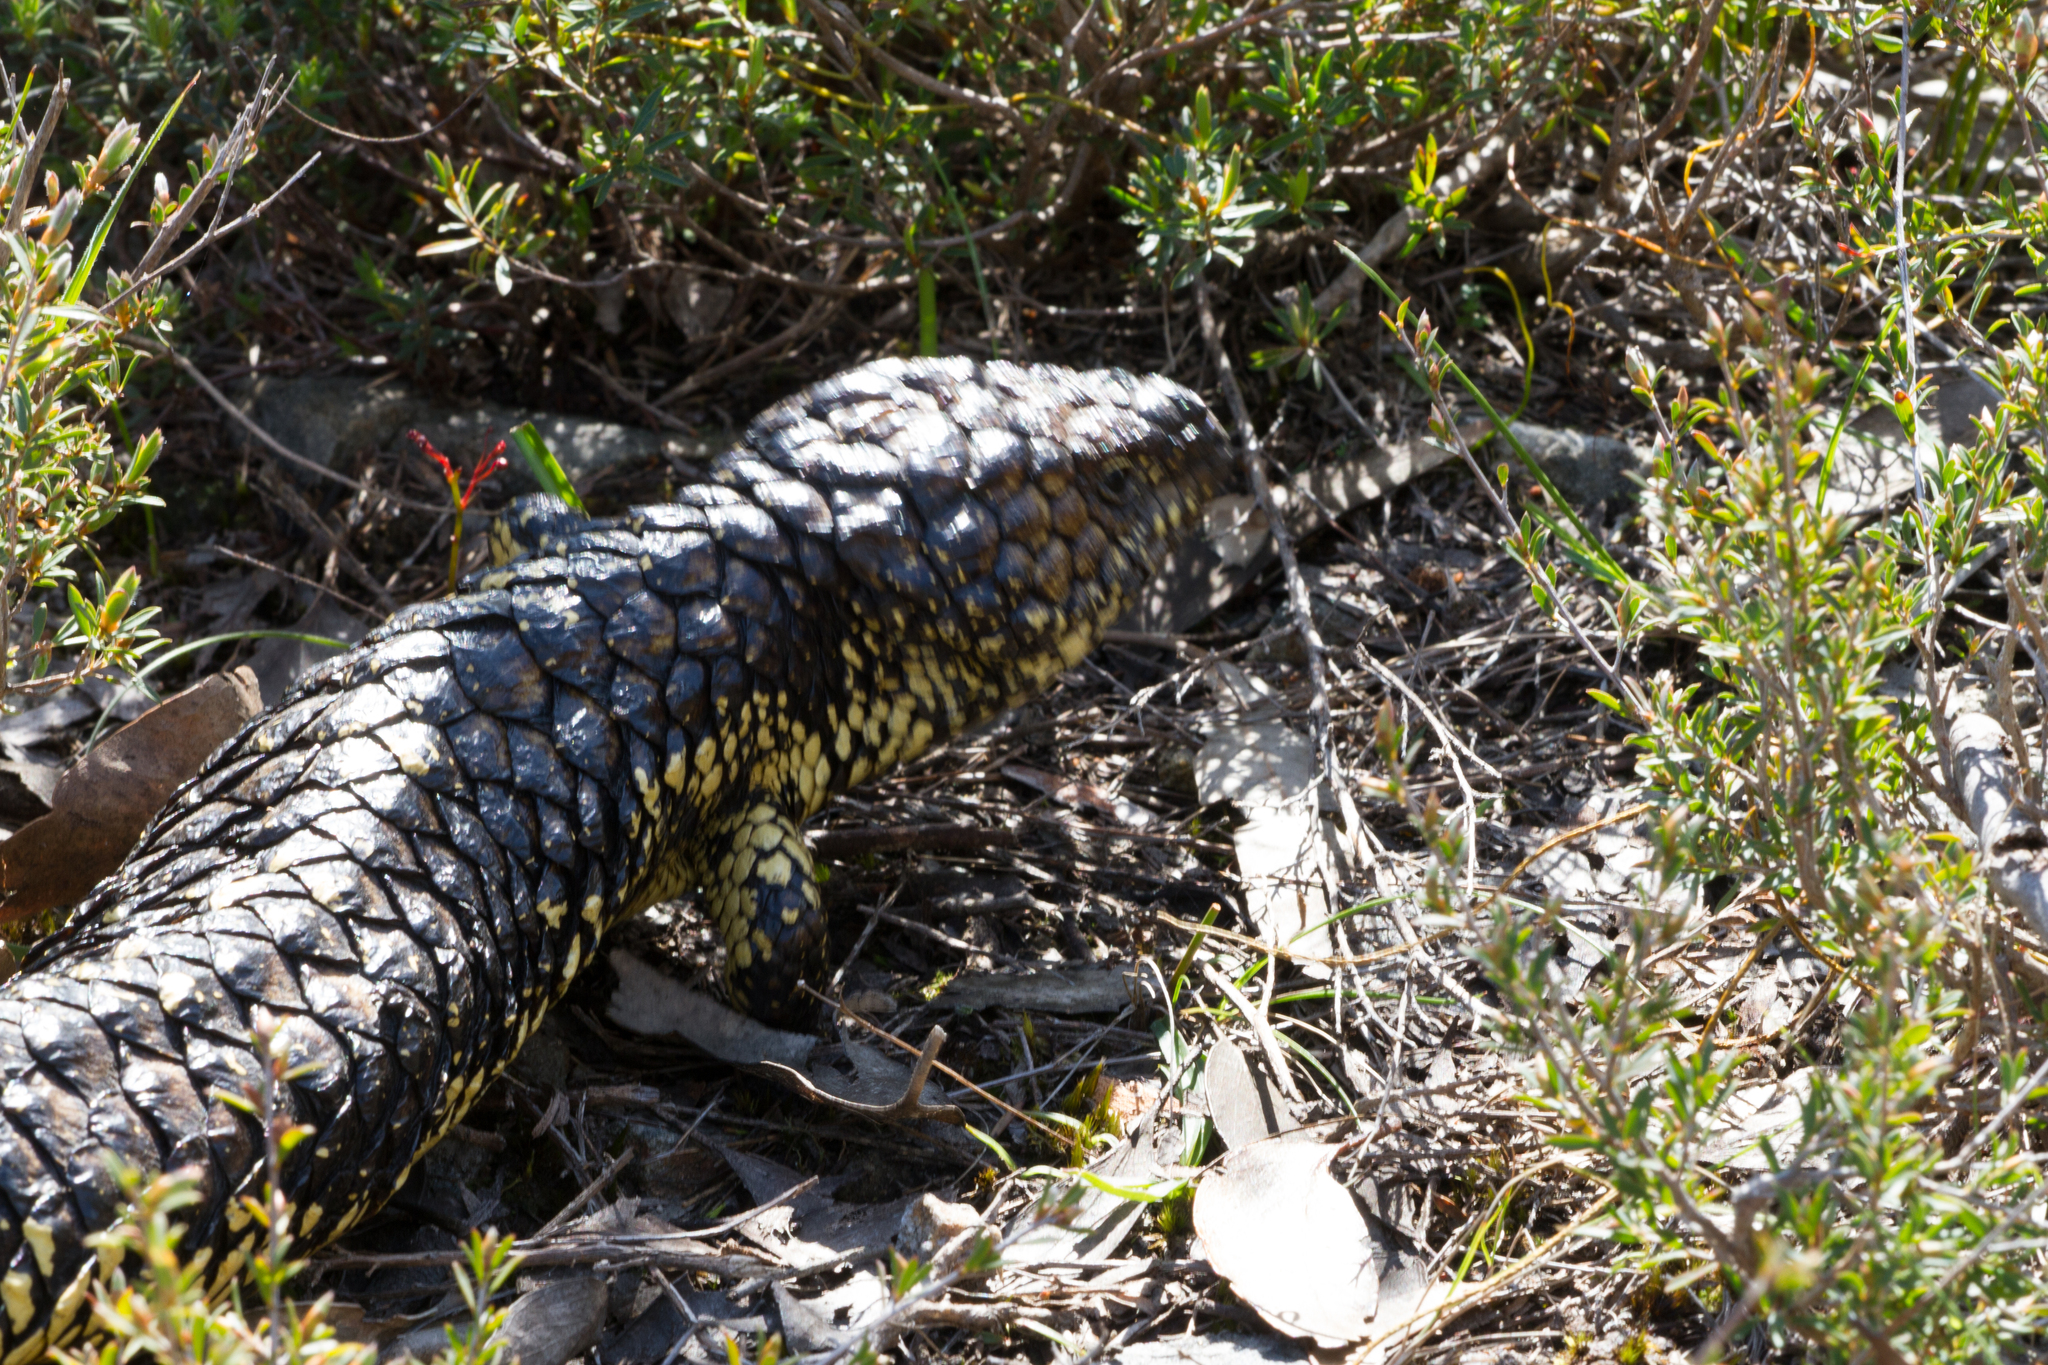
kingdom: Animalia
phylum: Chordata
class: Squamata
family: Scincidae
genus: Tiliqua
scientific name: Tiliqua rugosa
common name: Pinecone lizard
